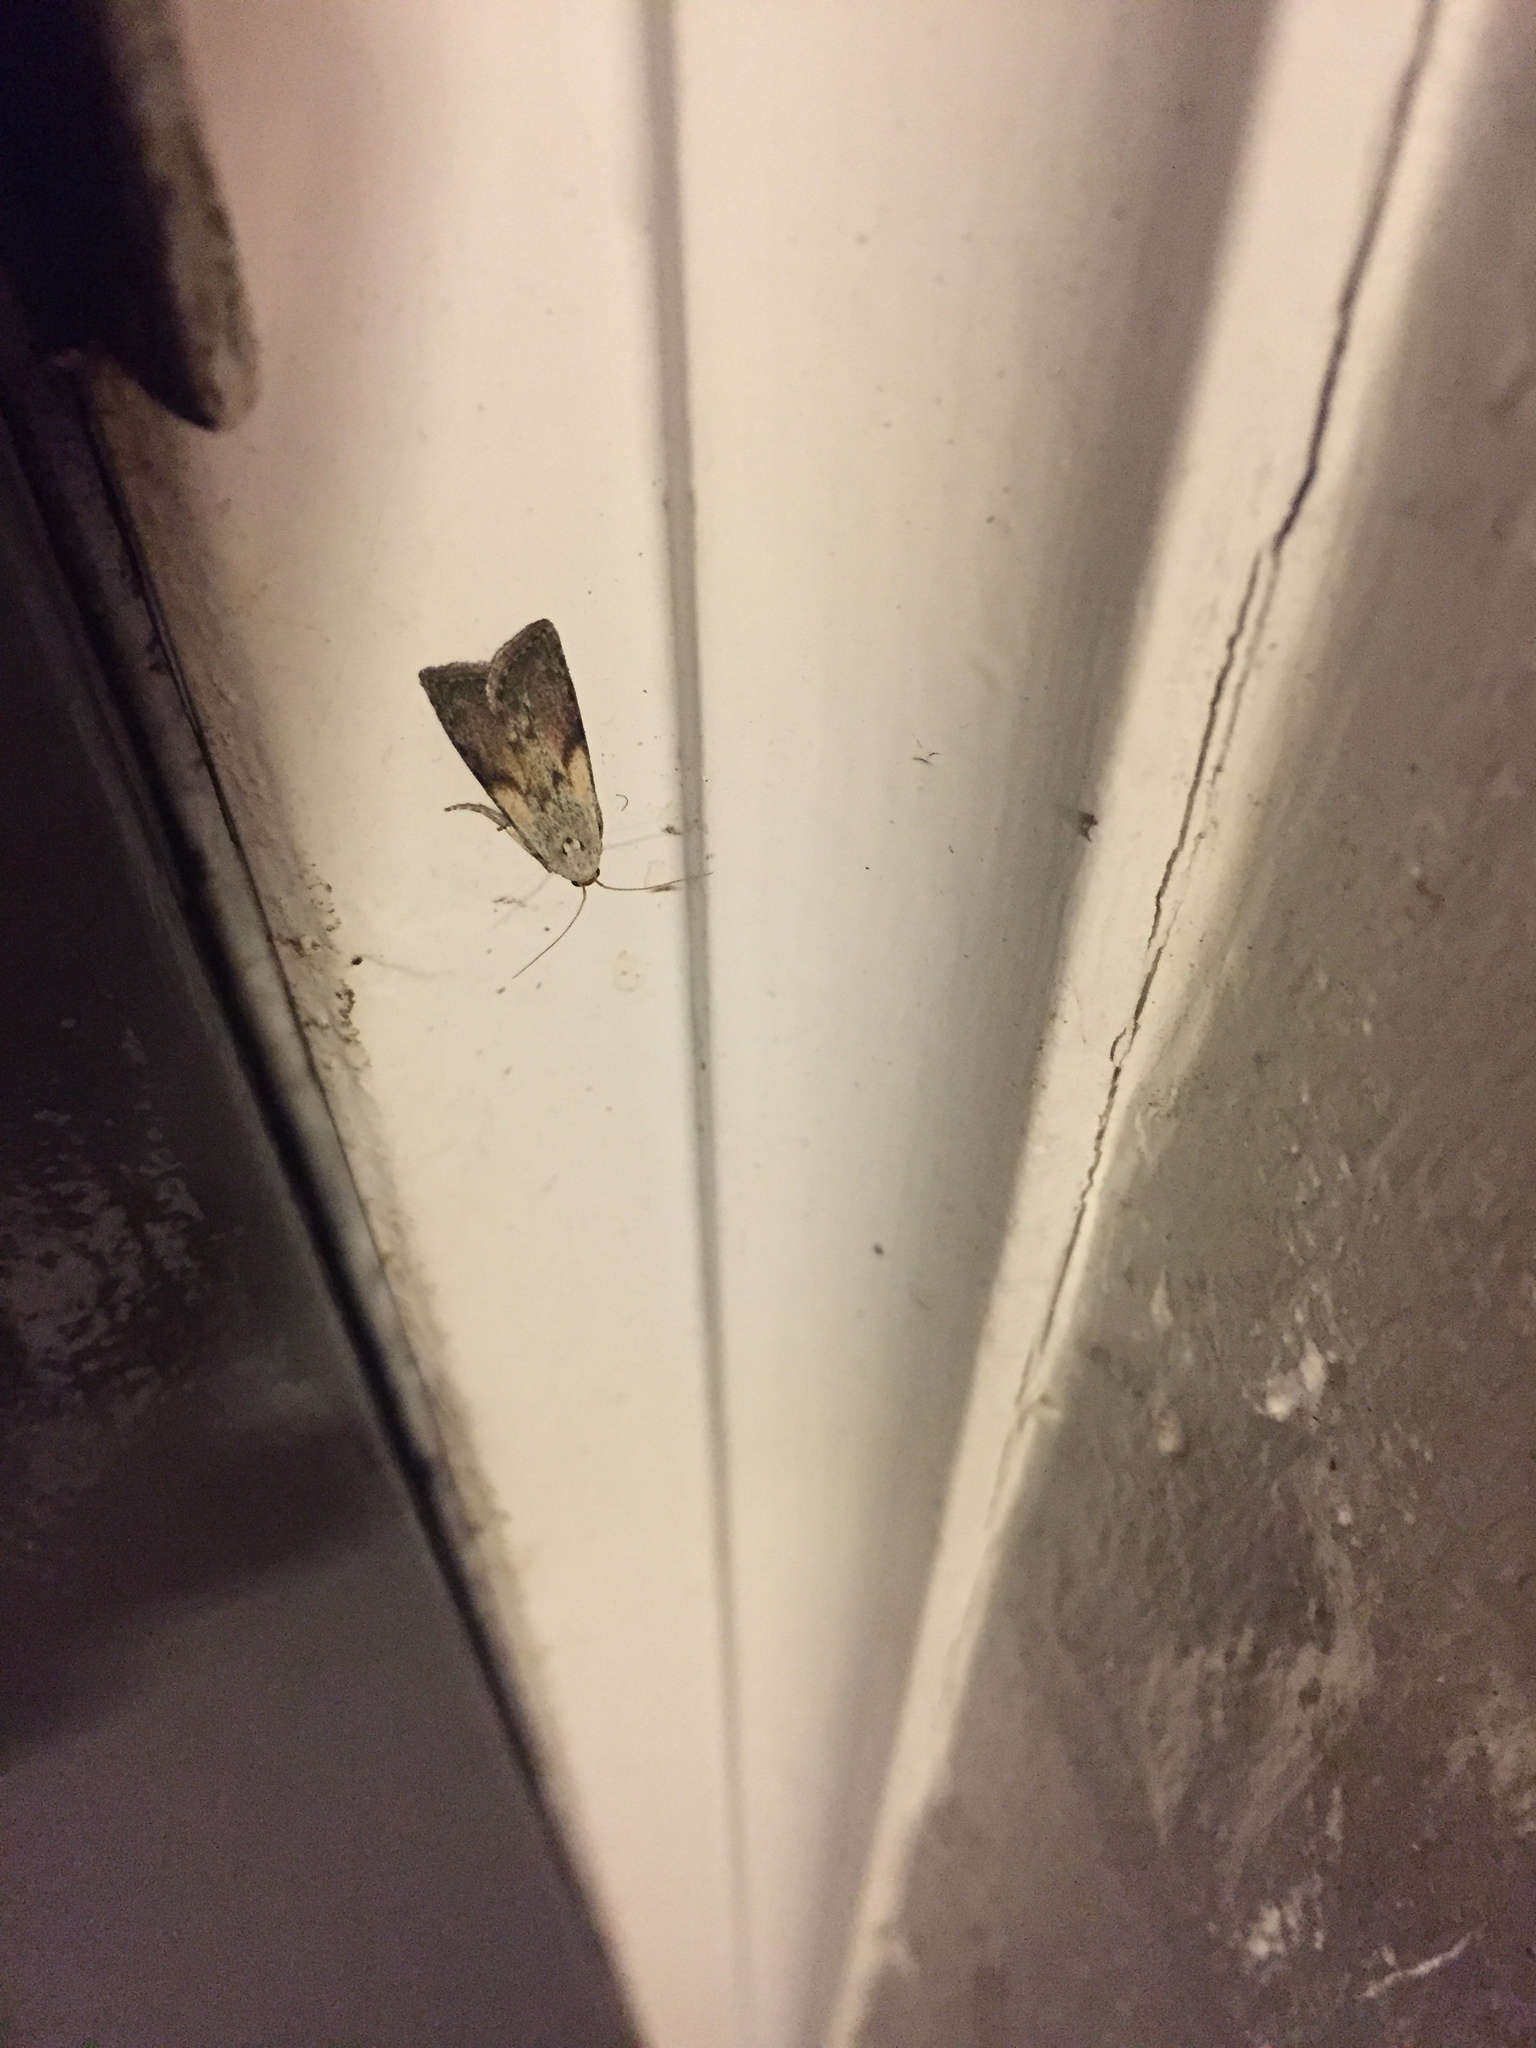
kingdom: Animalia
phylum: Arthropoda
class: Insecta
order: Lepidoptera
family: Pyralidae
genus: Aphomia
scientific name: Aphomia sociella
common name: Bee moth
